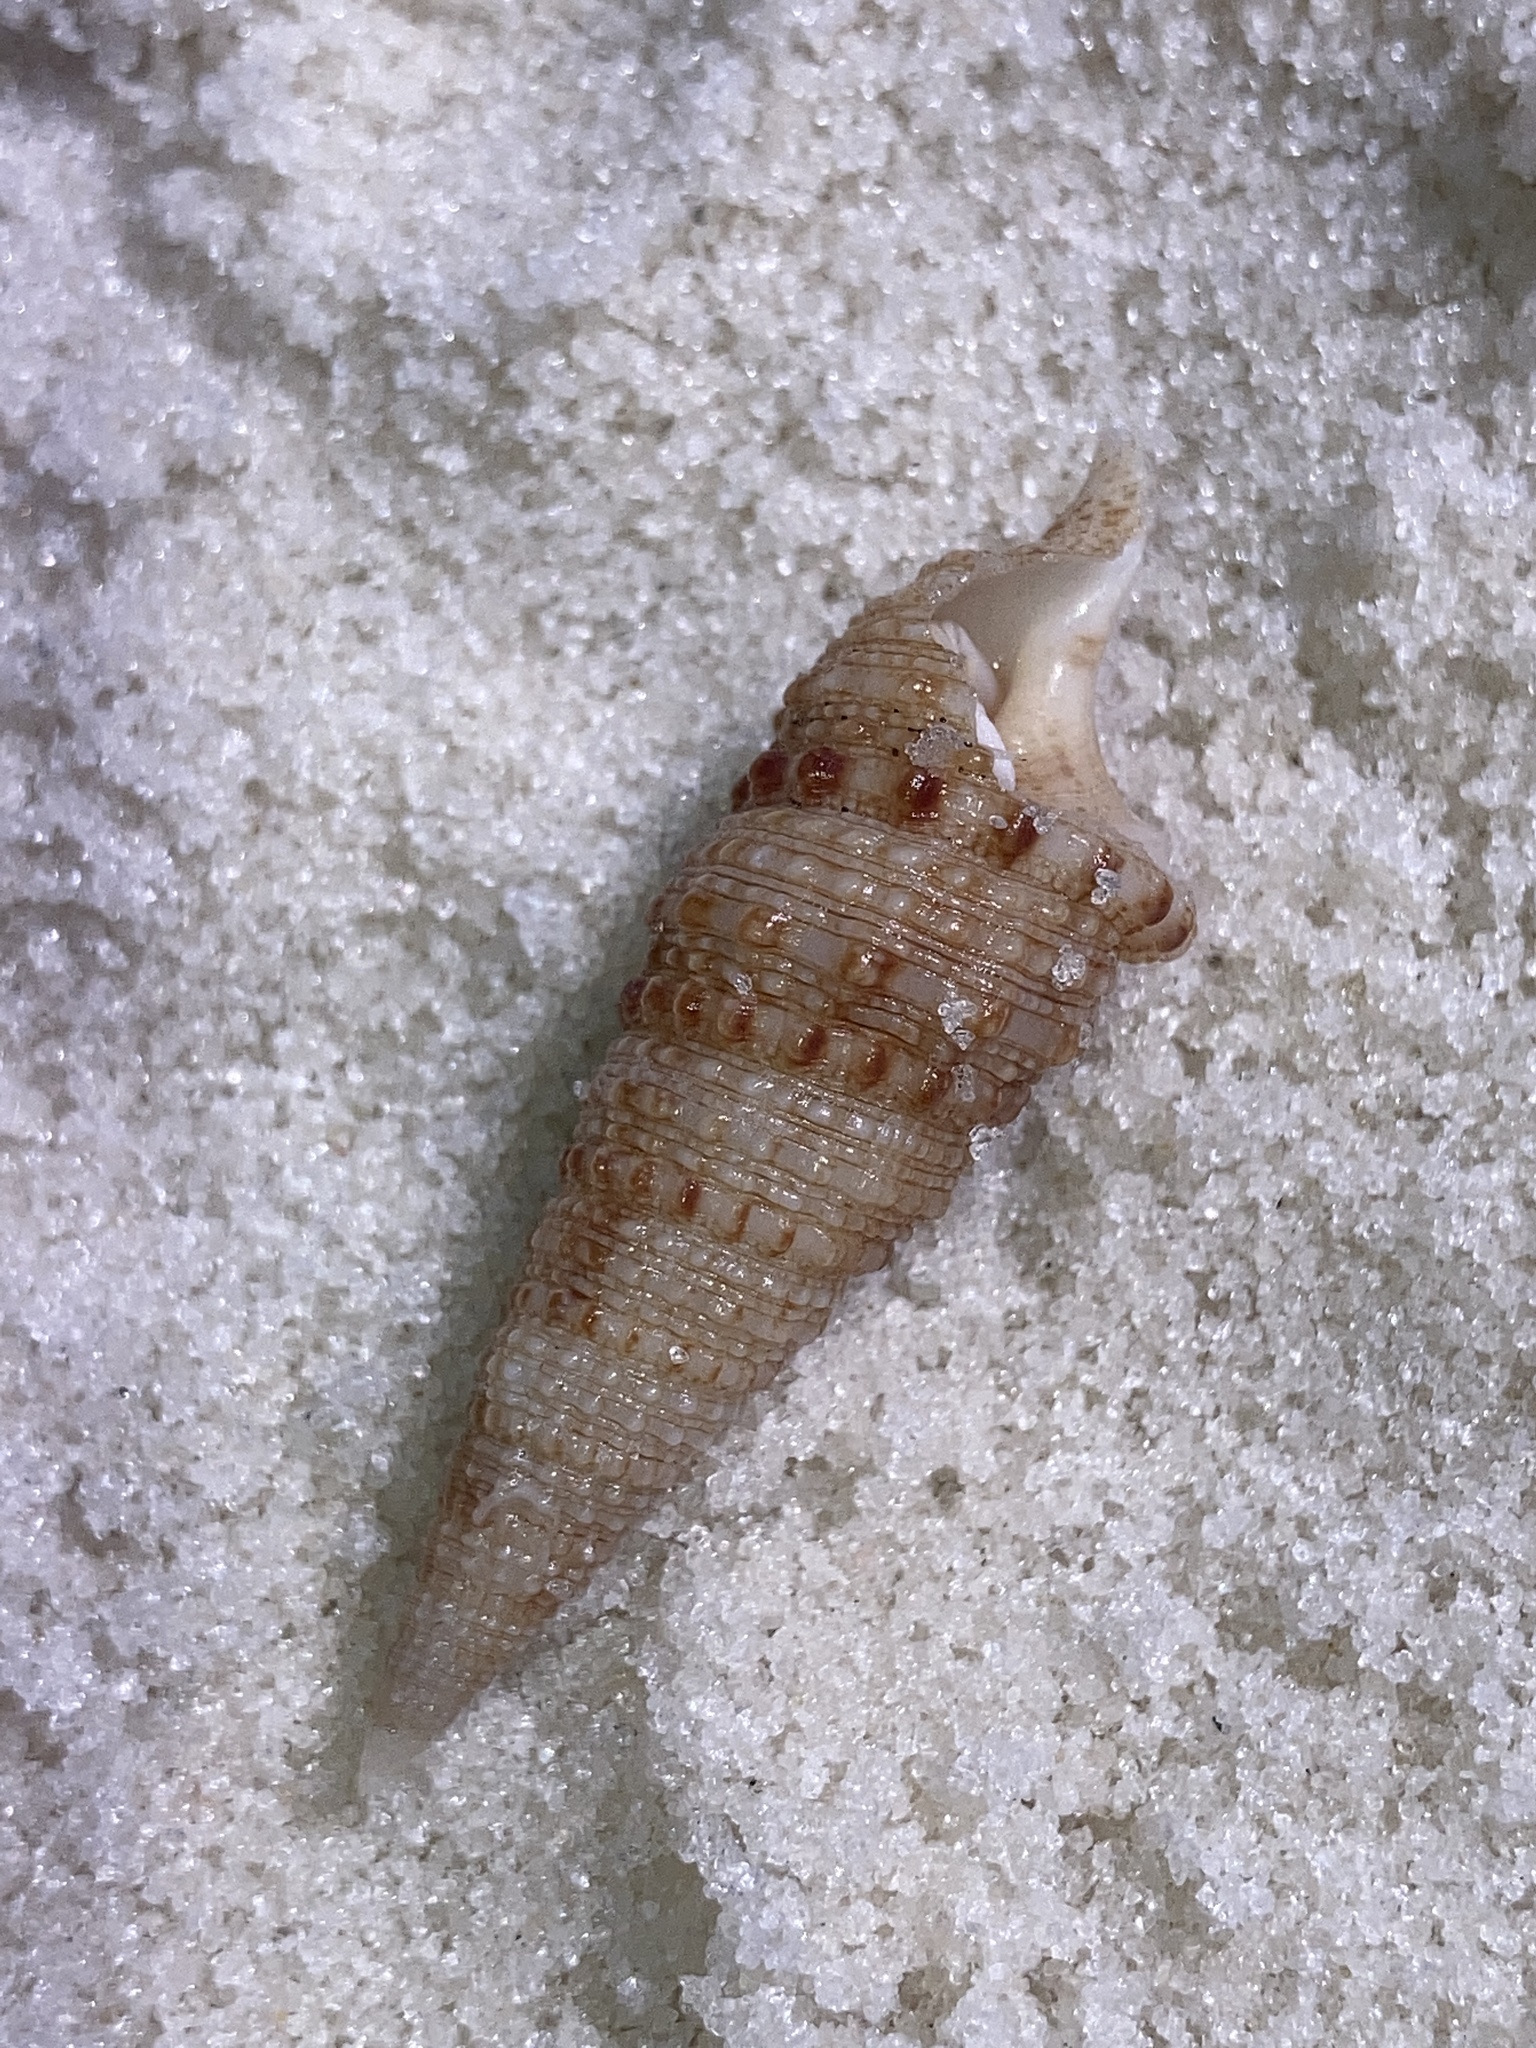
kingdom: Animalia
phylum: Mollusca
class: Gastropoda
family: Cerithiidae
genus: Cerithium
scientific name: Cerithium atratum
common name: Dark cerith
